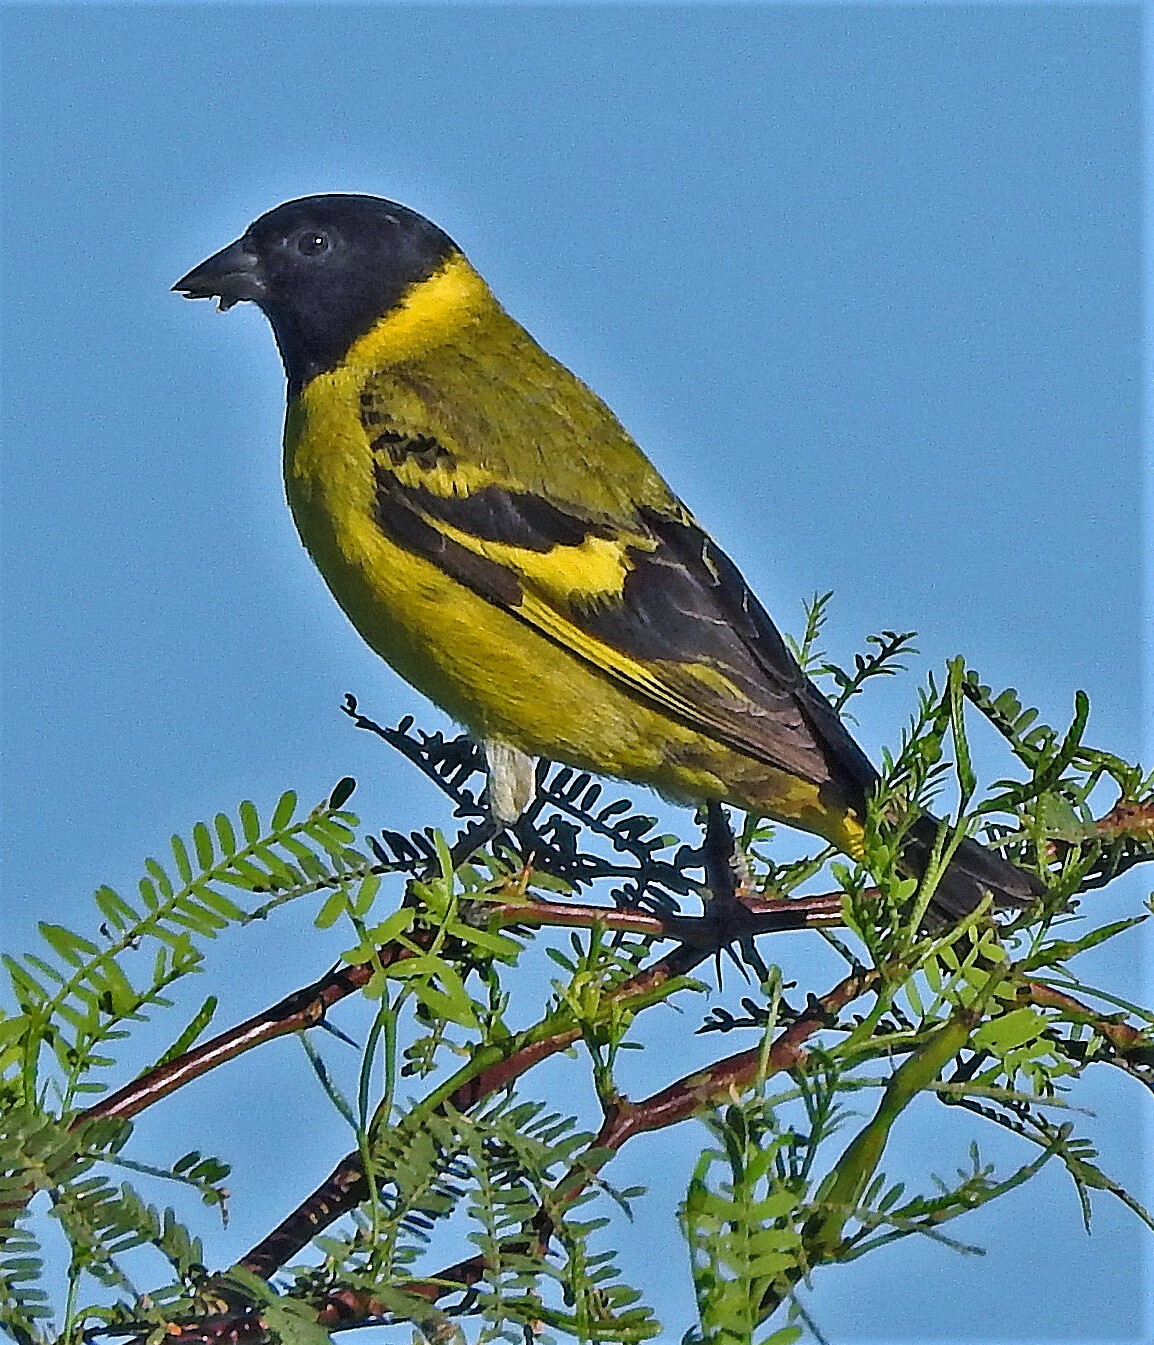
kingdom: Animalia
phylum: Chordata
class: Aves
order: Passeriformes
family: Fringillidae
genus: Spinus
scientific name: Spinus magellanicus
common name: Hooded siskin
